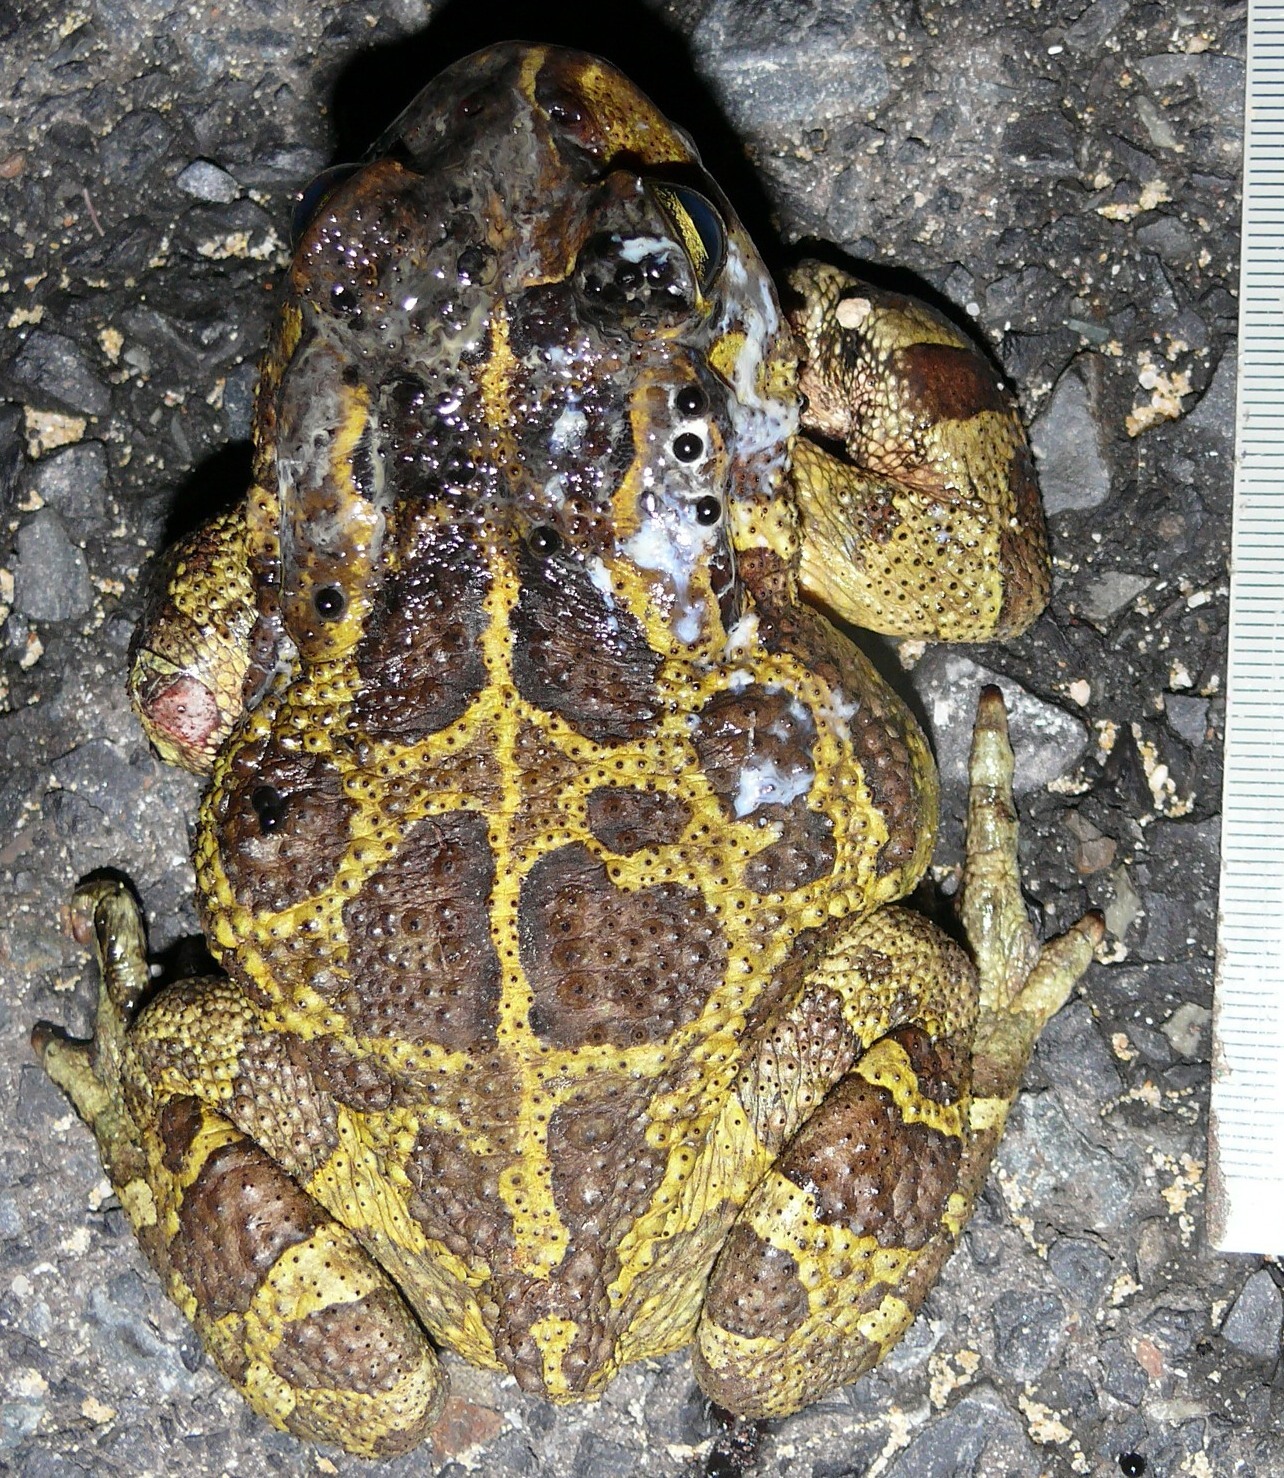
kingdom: Animalia
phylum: Chordata
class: Amphibia
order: Anura
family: Bufonidae
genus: Sclerophrys
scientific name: Sclerophrys pantherina
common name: Panther toad
